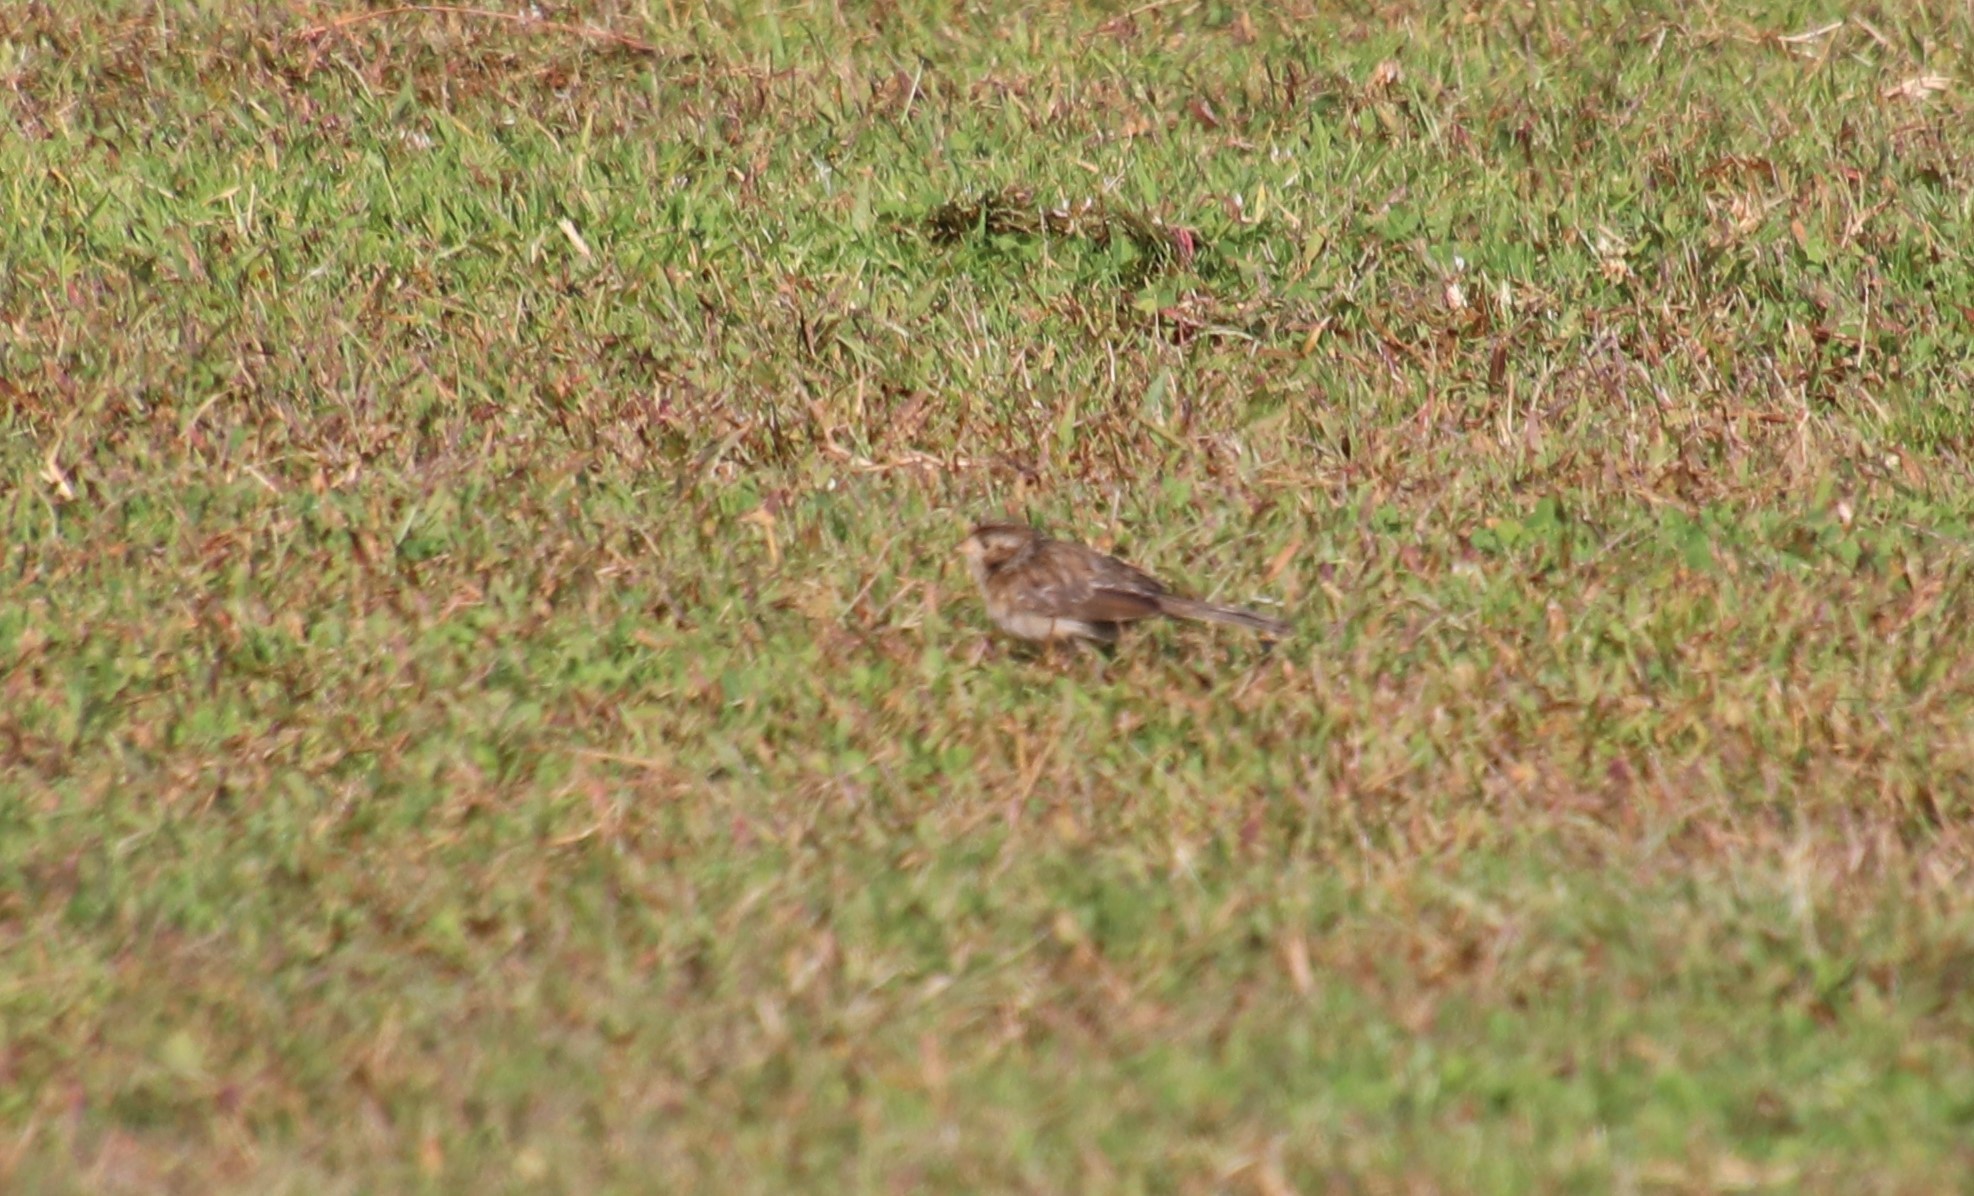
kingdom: Animalia
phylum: Chordata
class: Aves
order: Passeriformes
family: Passerellidae
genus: Spizella
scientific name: Spizella pallida
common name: Clay-colored sparrow
